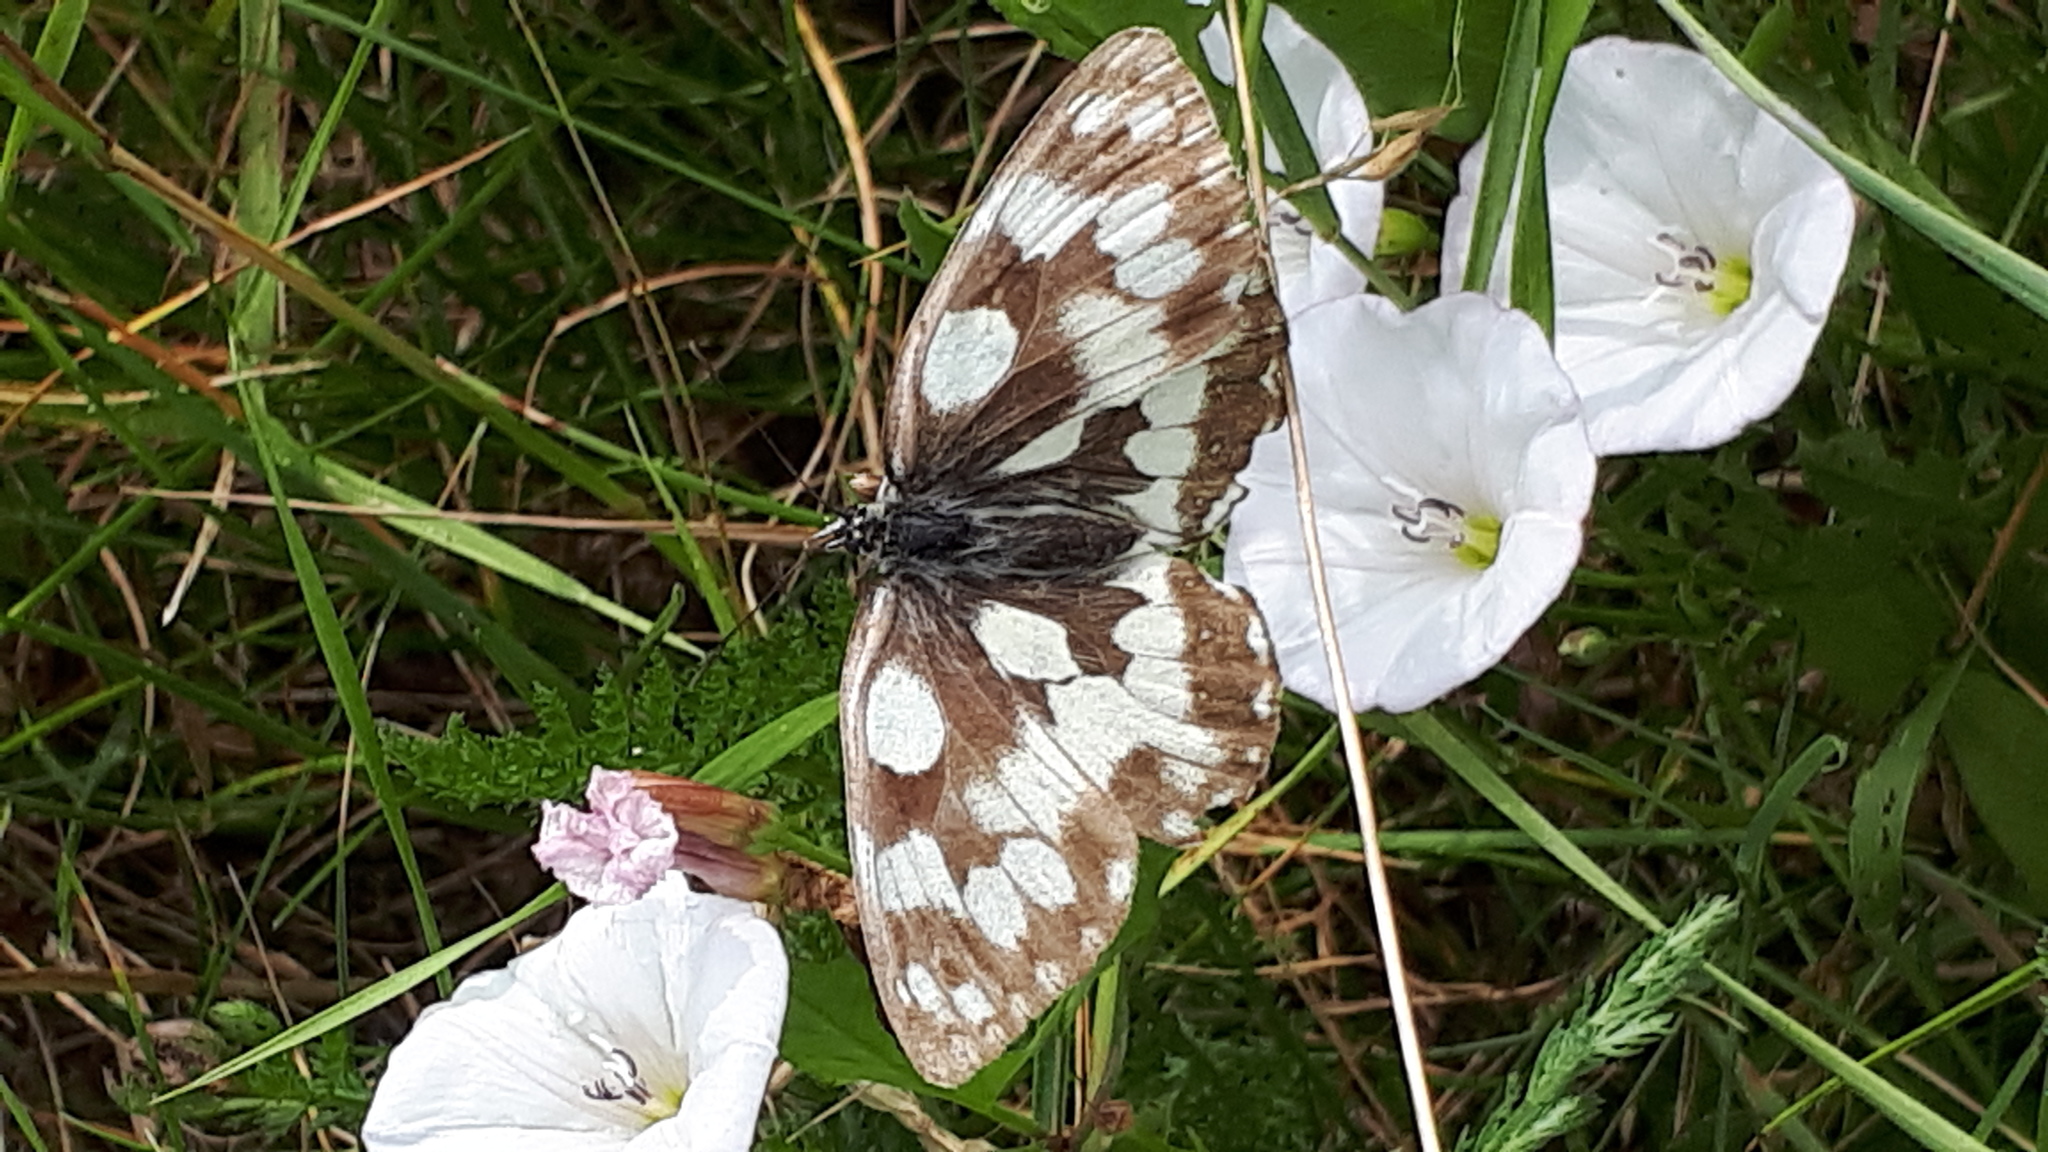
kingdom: Animalia
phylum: Arthropoda
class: Insecta
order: Lepidoptera
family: Nymphalidae
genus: Melanargia
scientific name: Melanargia galathea
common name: Marbled white
